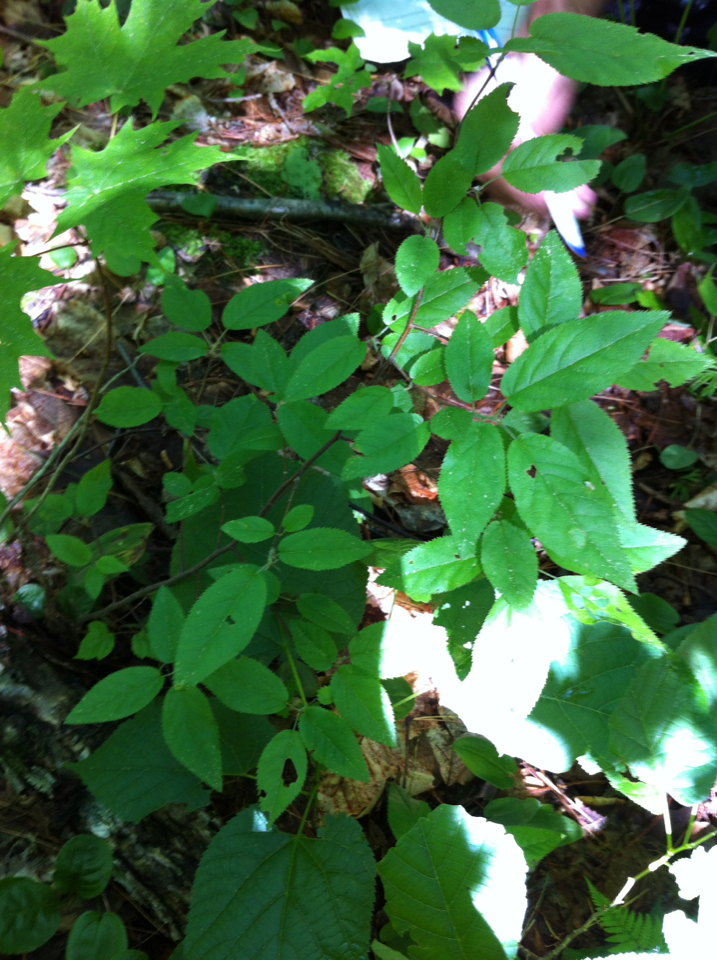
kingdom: Plantae
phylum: Tracheophyta
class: Magnoliopsida
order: Rosales
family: Rosaceae
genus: Amelanchier
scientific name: Amelanchier arborea
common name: Downy serviceberry
